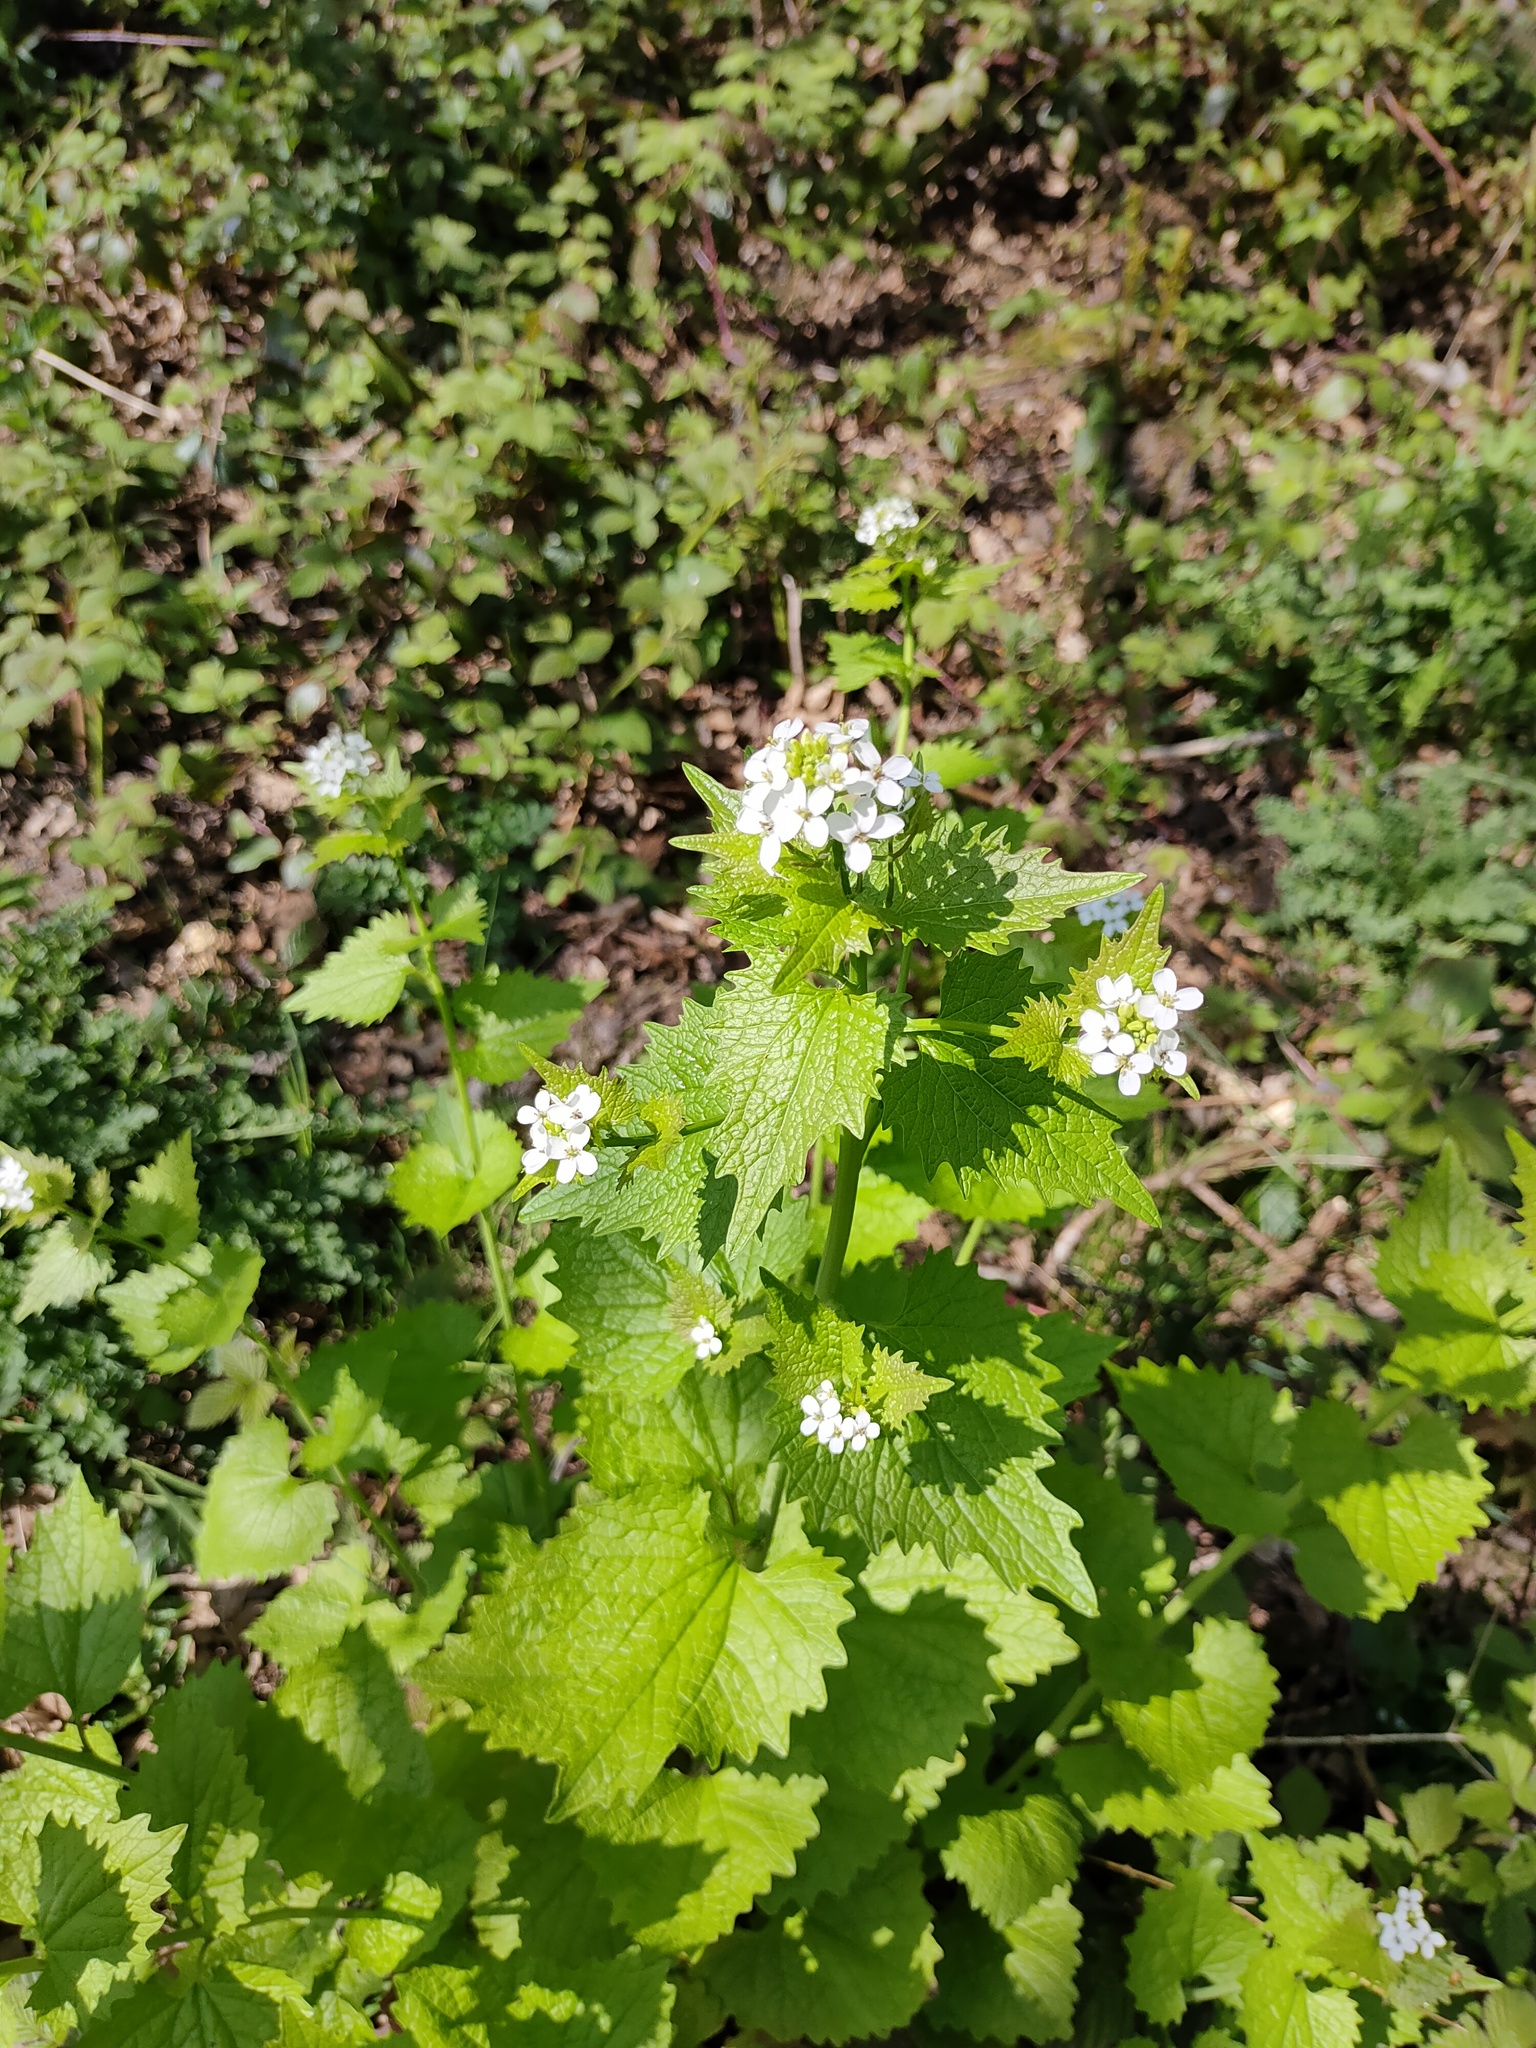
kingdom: Plantae
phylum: Tracheophyta
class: Magnoliopsida
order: Brassicales
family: Brassicaceae
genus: Alliaria
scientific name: Alliaria petiolata
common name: Garlic mustard
